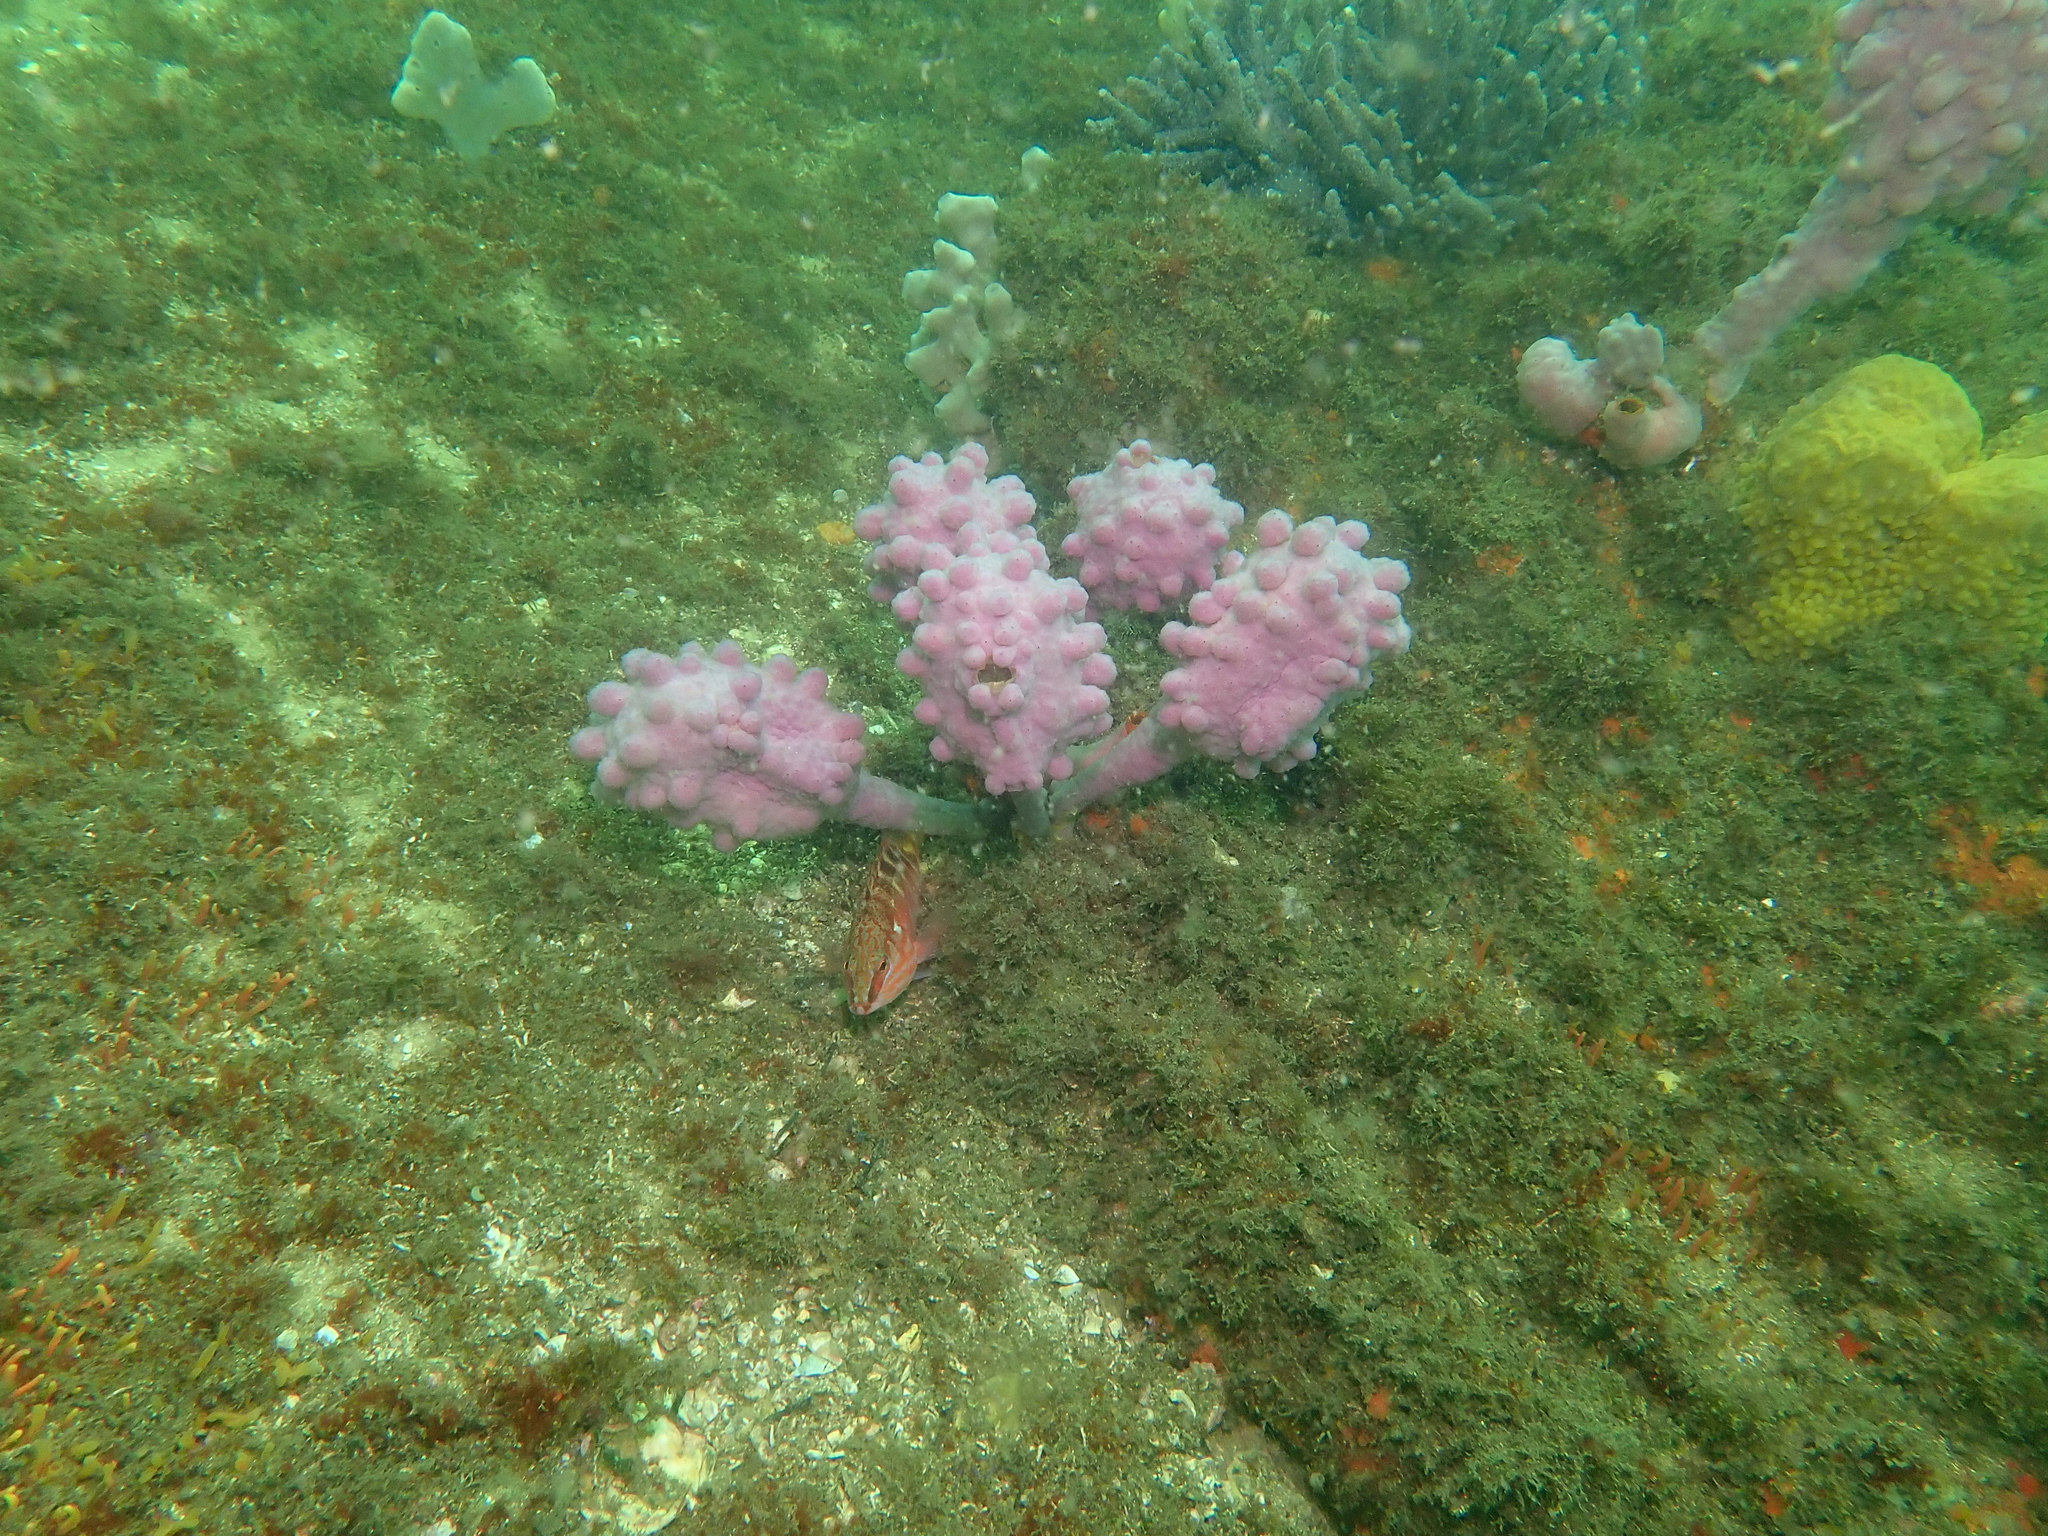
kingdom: Animalia
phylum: Chordata
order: Perciformes
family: Serranidae
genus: Hypoplectrodes
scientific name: Hypoplectrodes maccullochi
